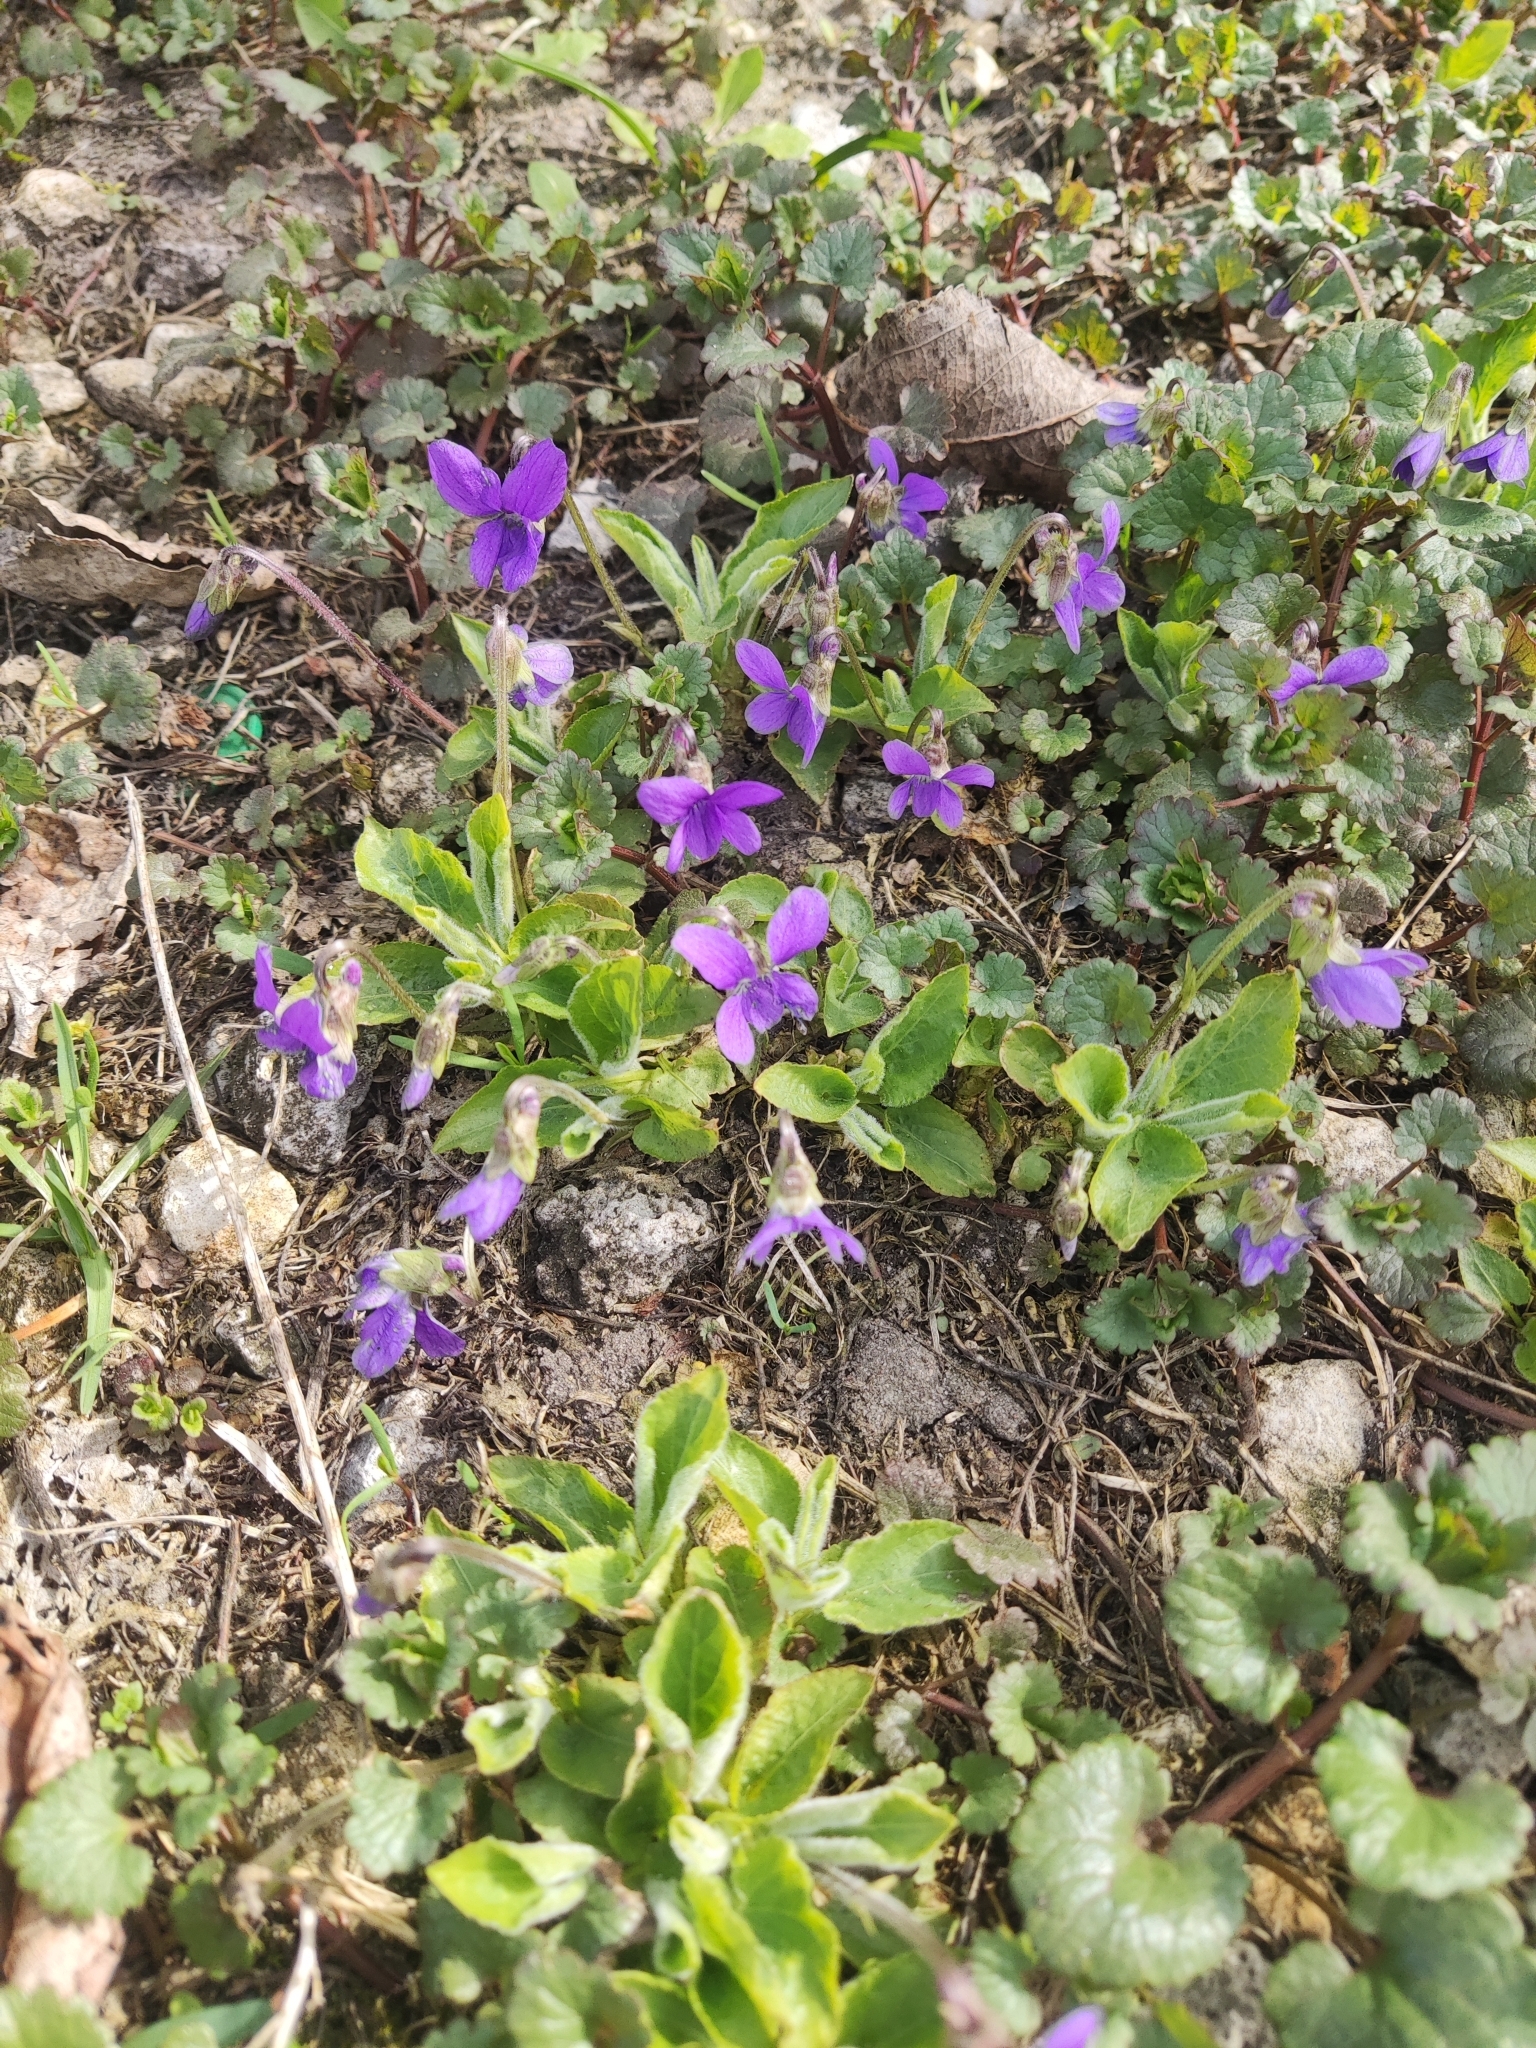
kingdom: Plantae
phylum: Tracheophyta
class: Magnoliopsida
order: Malpighiales
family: Violaceae
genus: Viola
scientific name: Viola hirta
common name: Hairy violet
